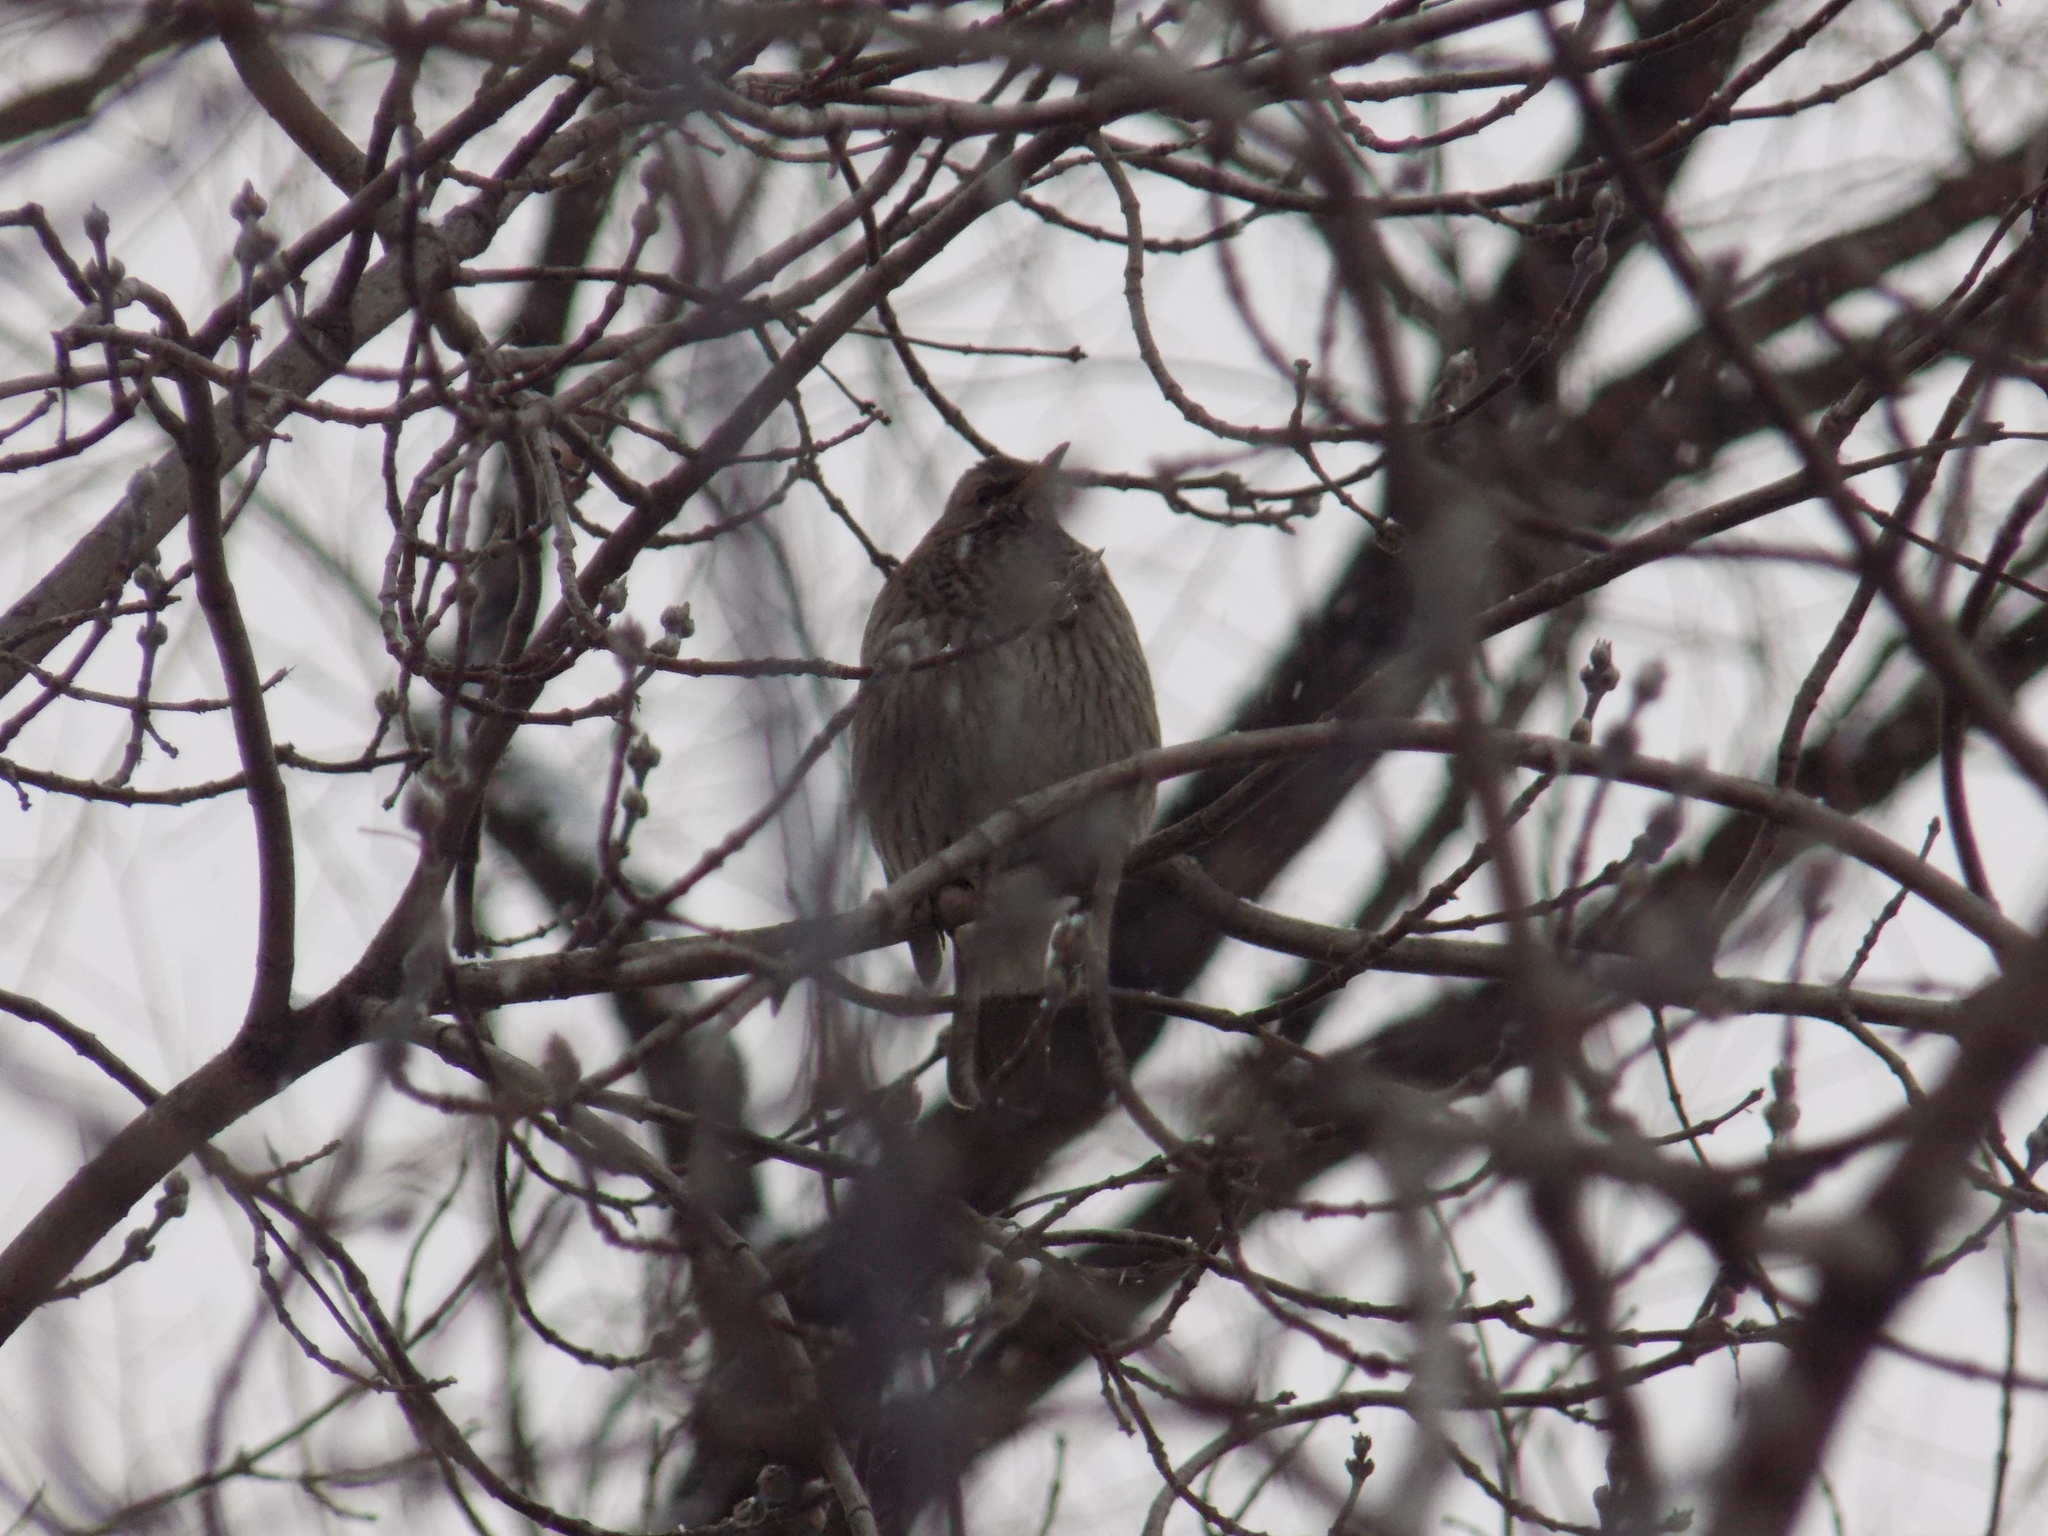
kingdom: Animalia
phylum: Chordata
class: Aves
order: Passeriformes
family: Turdidae
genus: Turdus
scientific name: Turdus atrogularis
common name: Black-throated thrush
